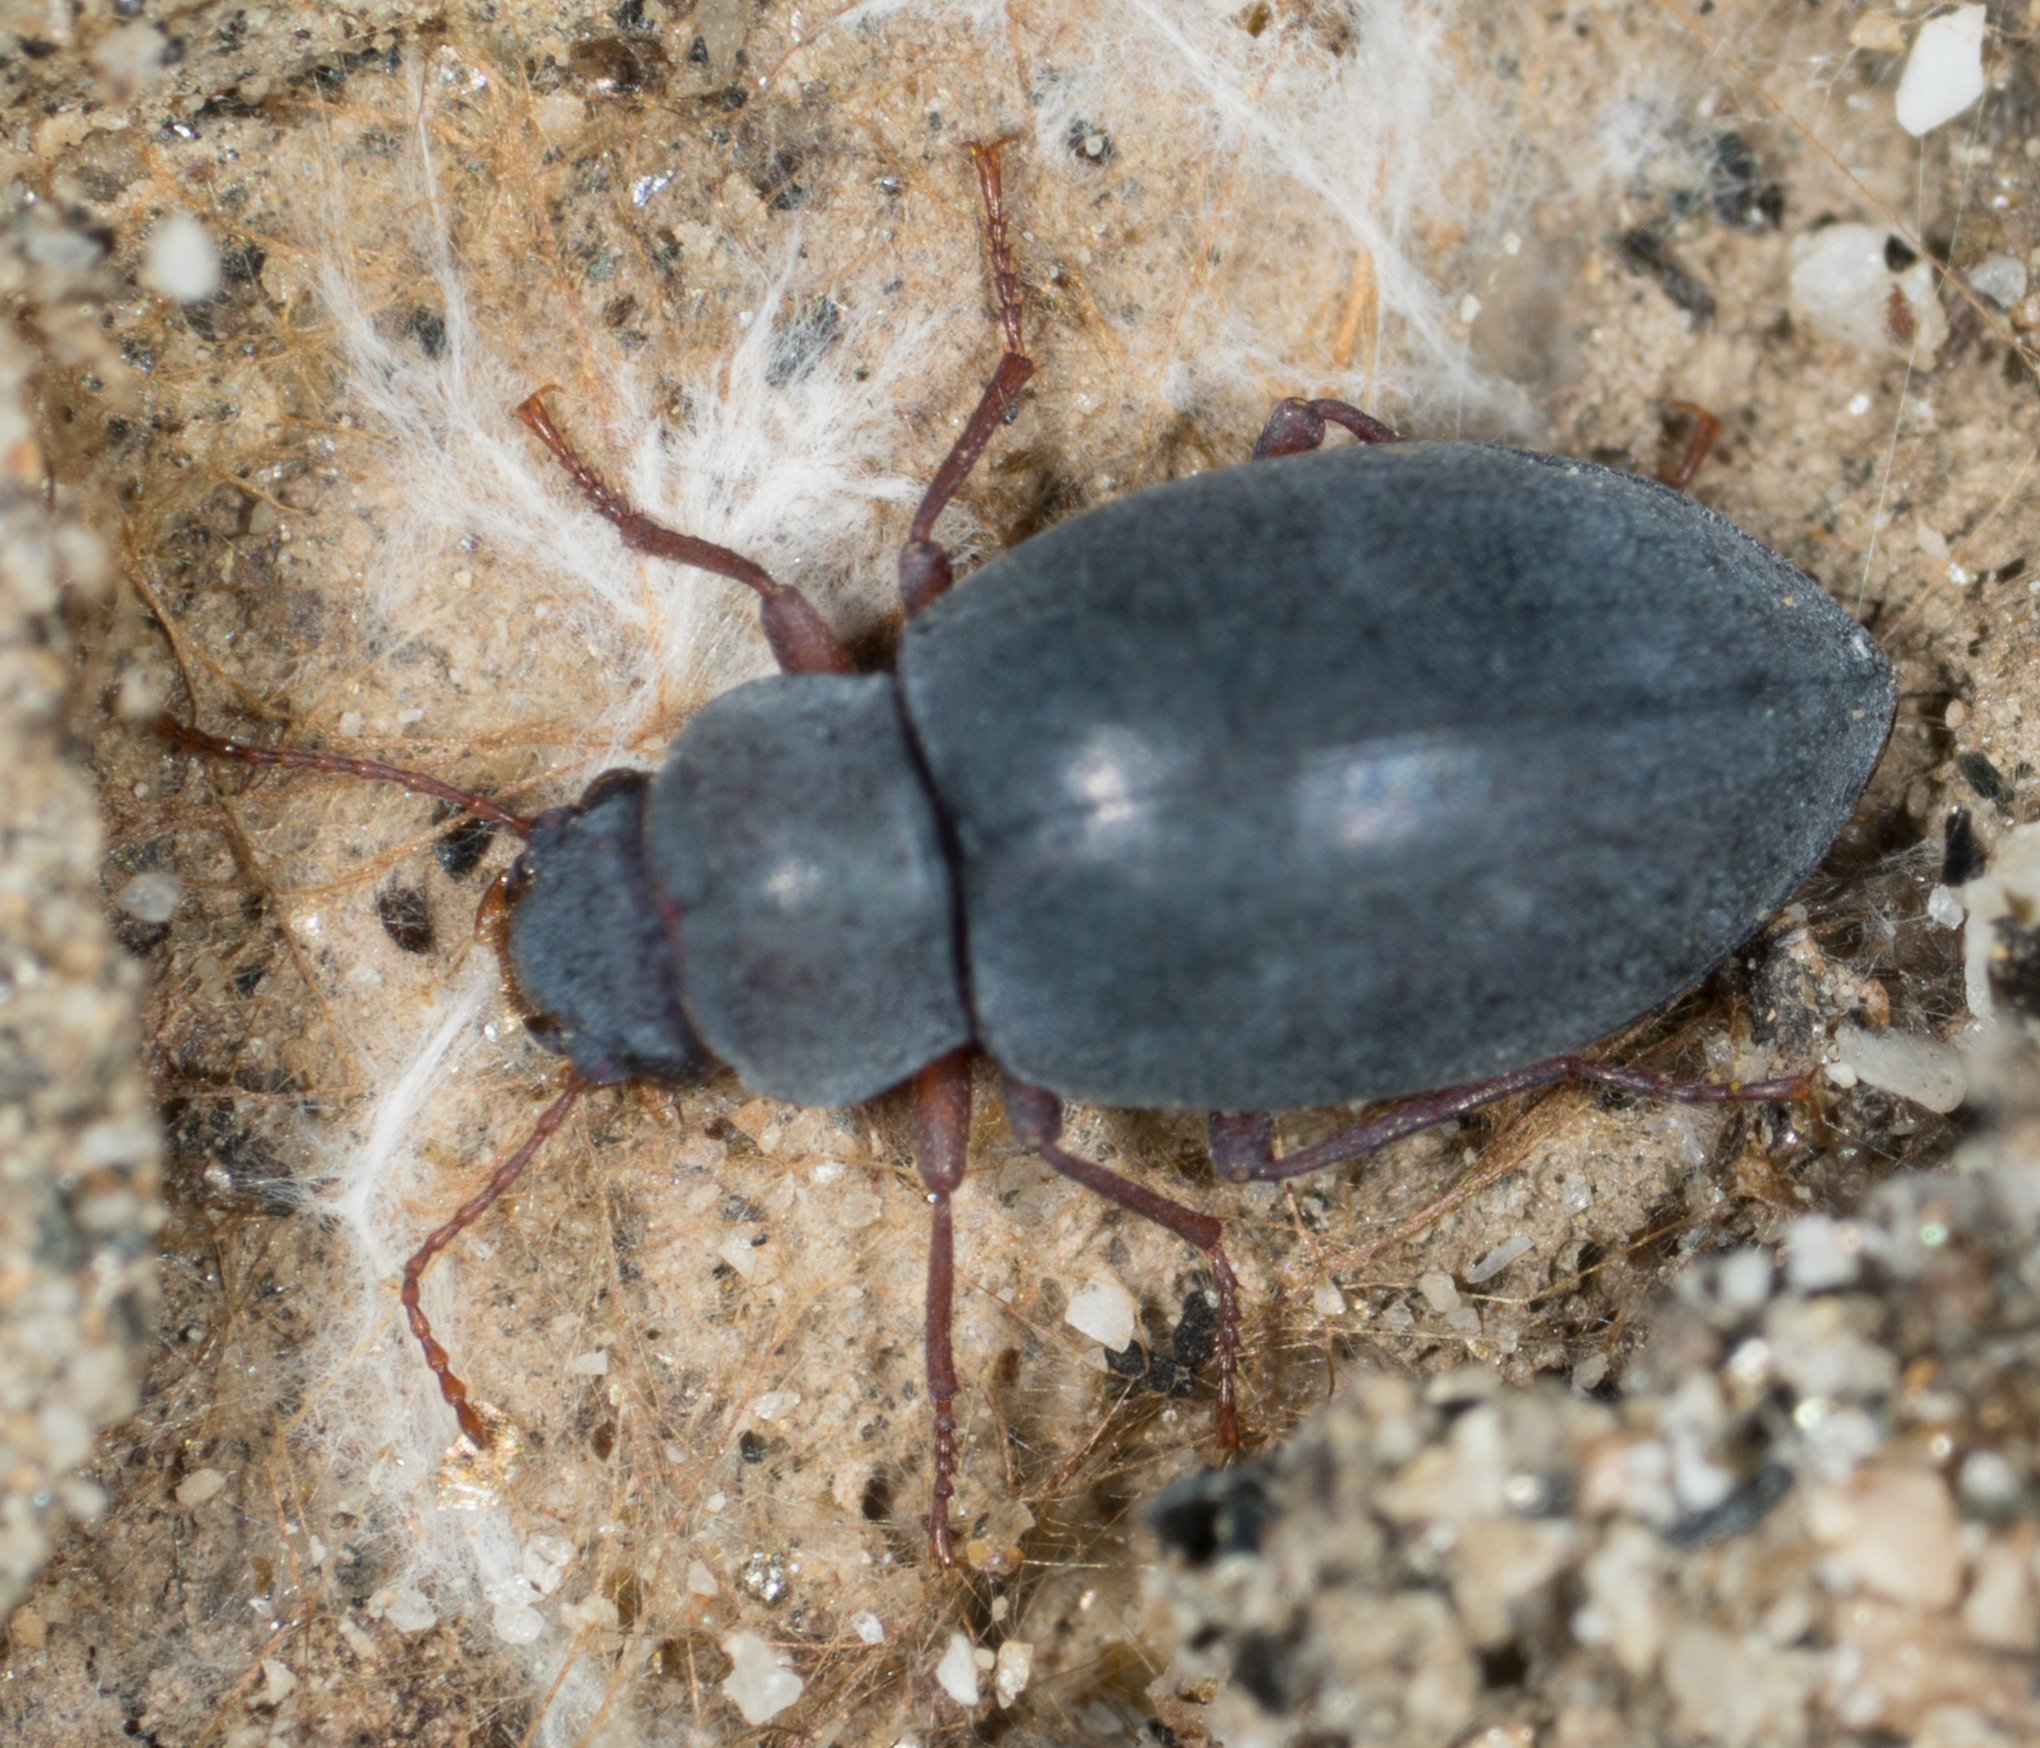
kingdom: Animalia
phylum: Arthropoda
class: Insecta
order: Coleoptera
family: Tenebrionidae
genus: Chilometopon
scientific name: Chilometopon microps
